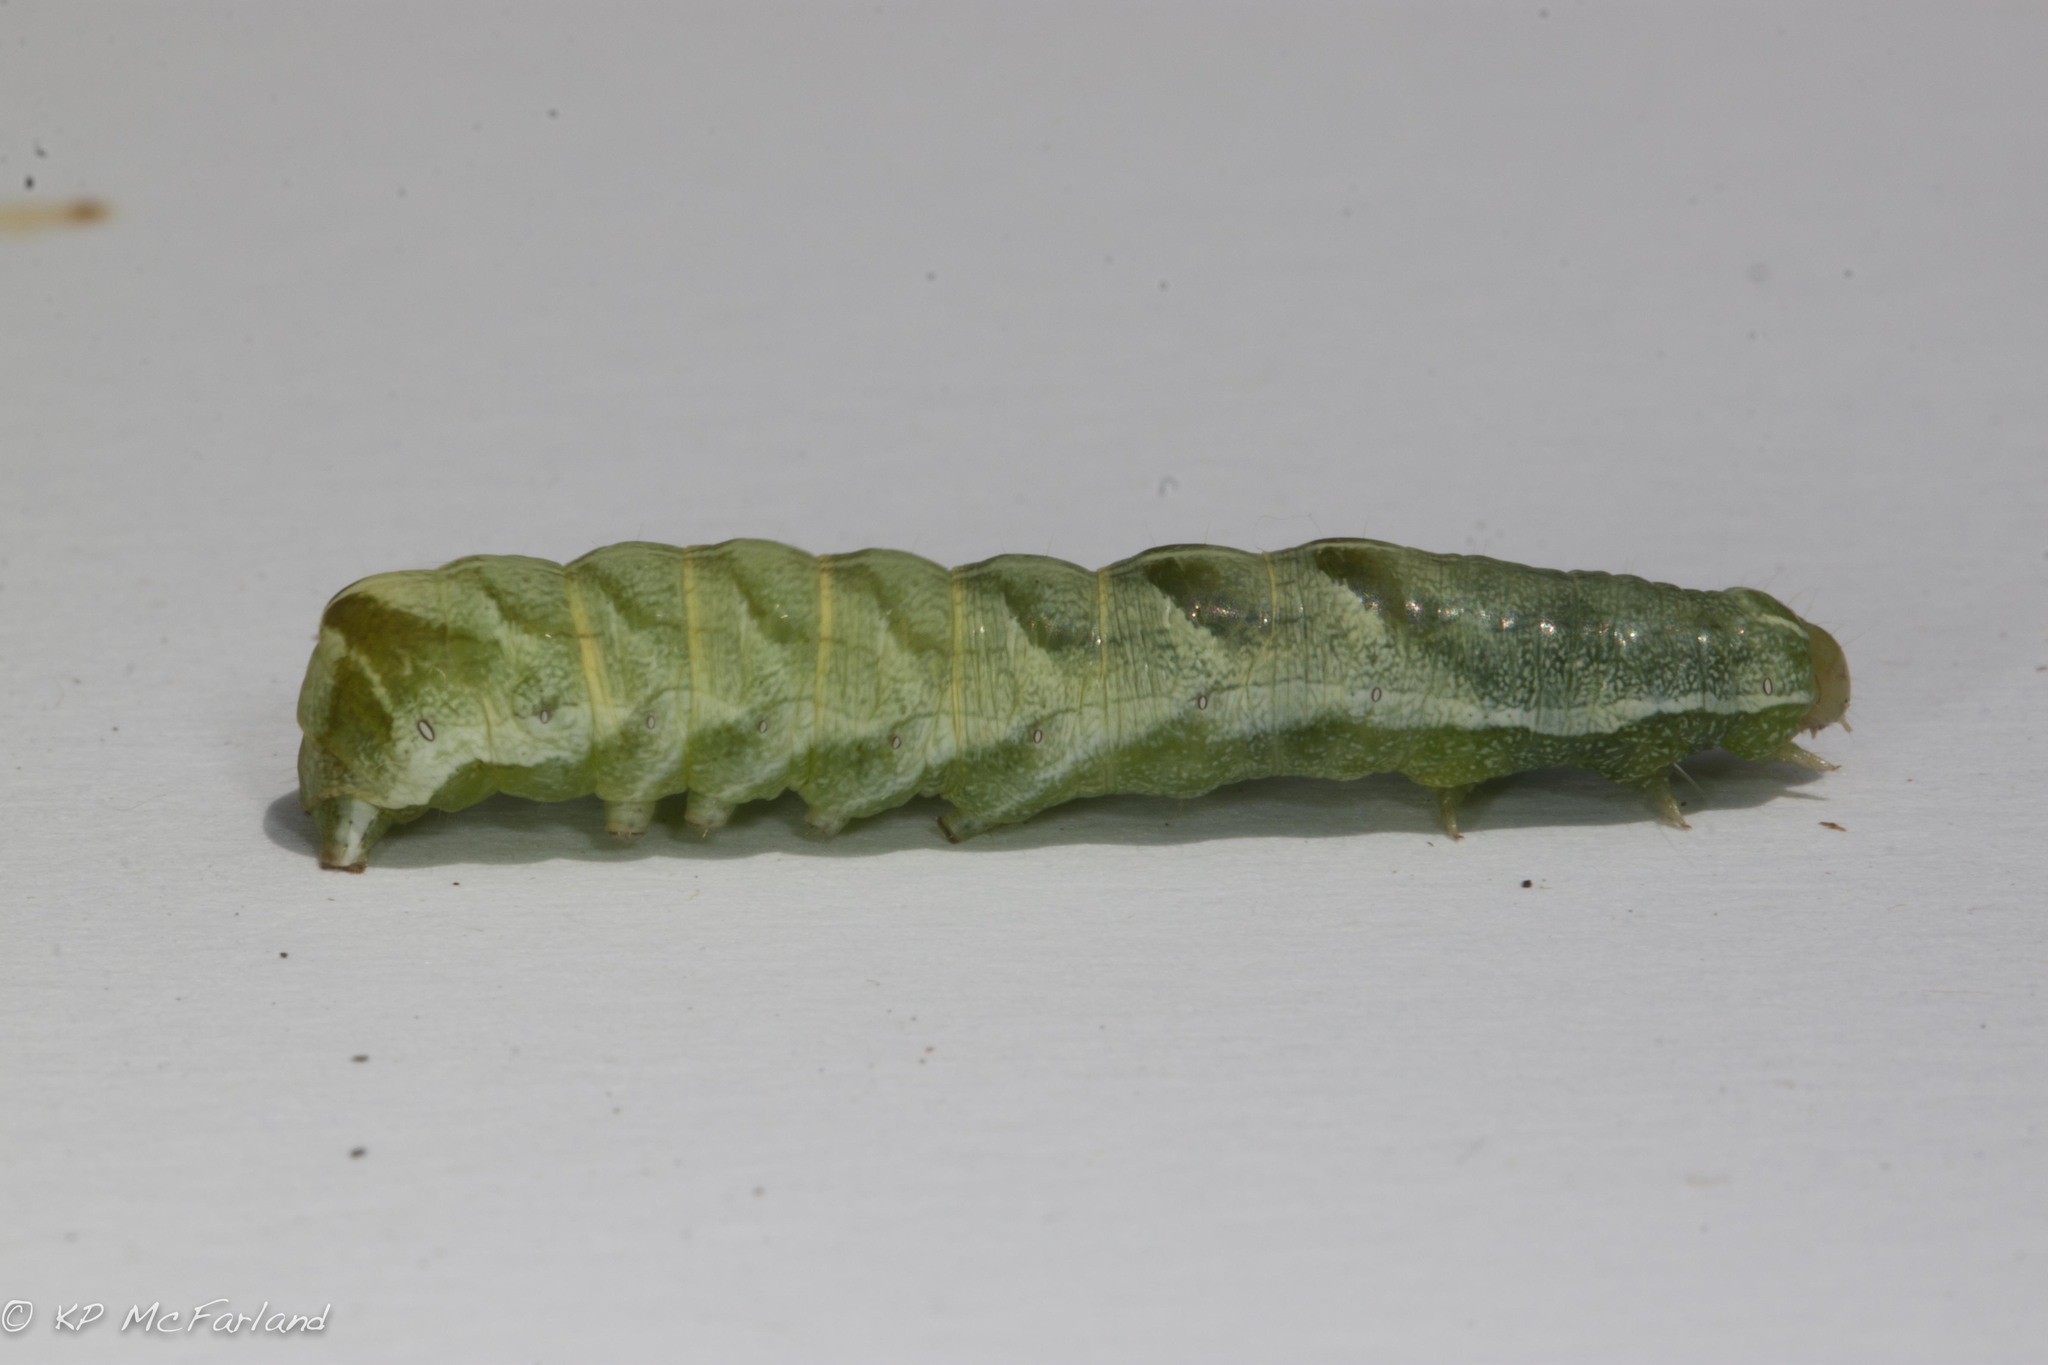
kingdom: Animalia
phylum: Arthropoda
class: Insecta
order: Lepidoptera
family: Noctuidae
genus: Melanchra
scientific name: Melanchra adjuncta
